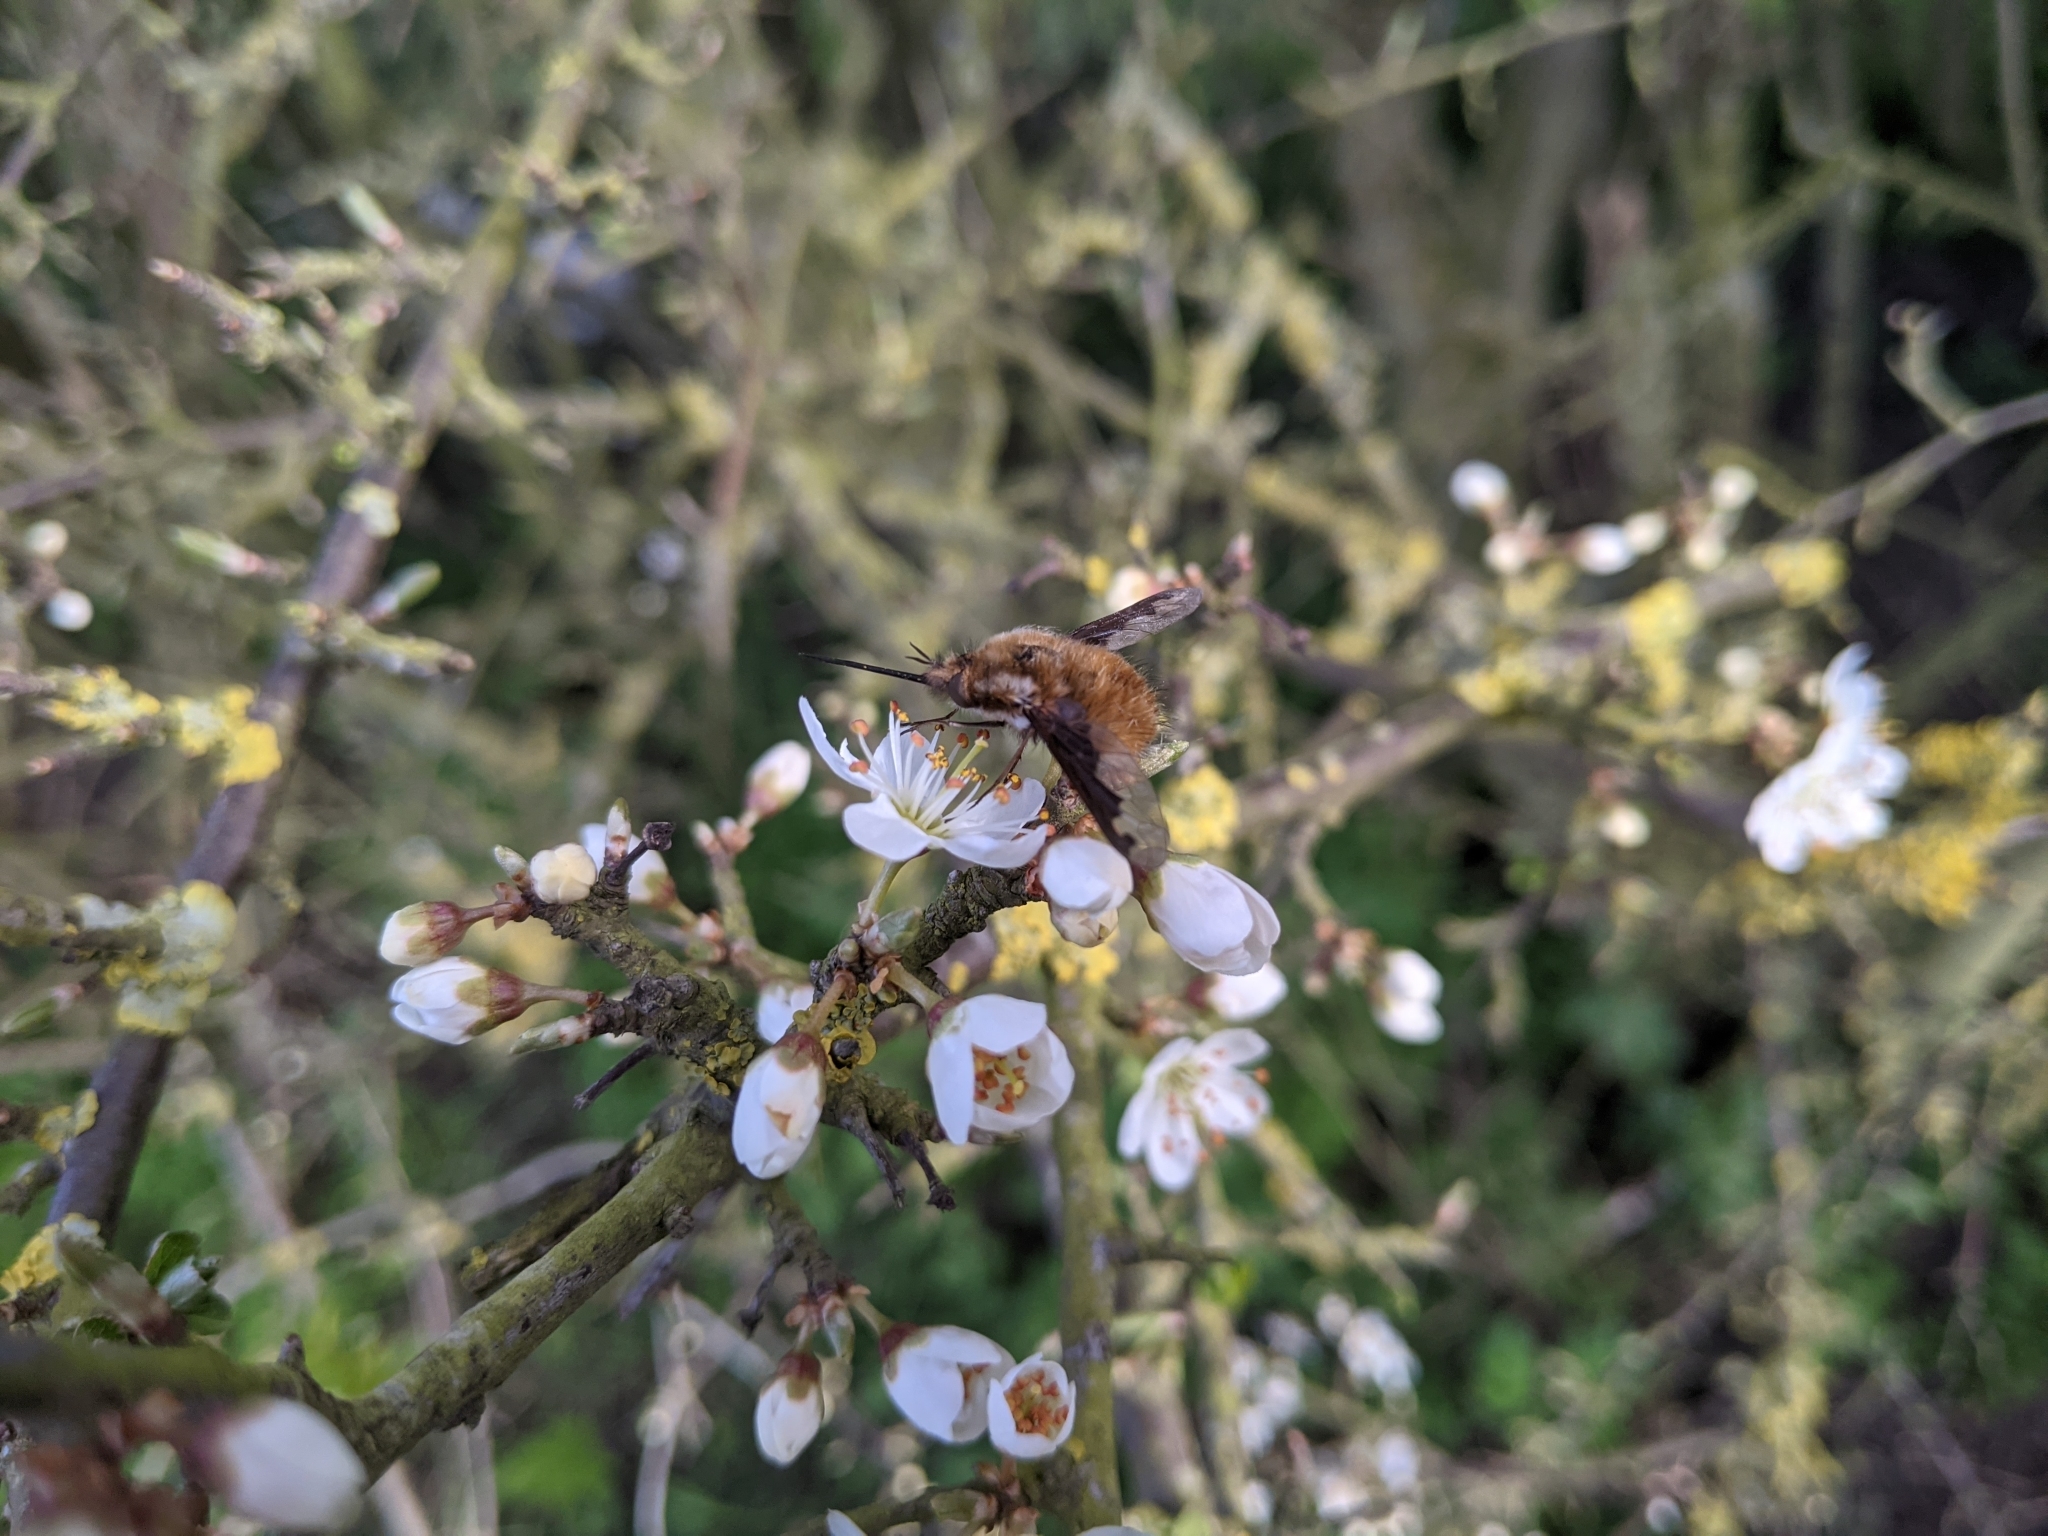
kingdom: Animalia
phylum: Arthropoda
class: Insecta
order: Diptera
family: Bombyliidae
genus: Bombylius
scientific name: Bombylius major
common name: Bee fly
